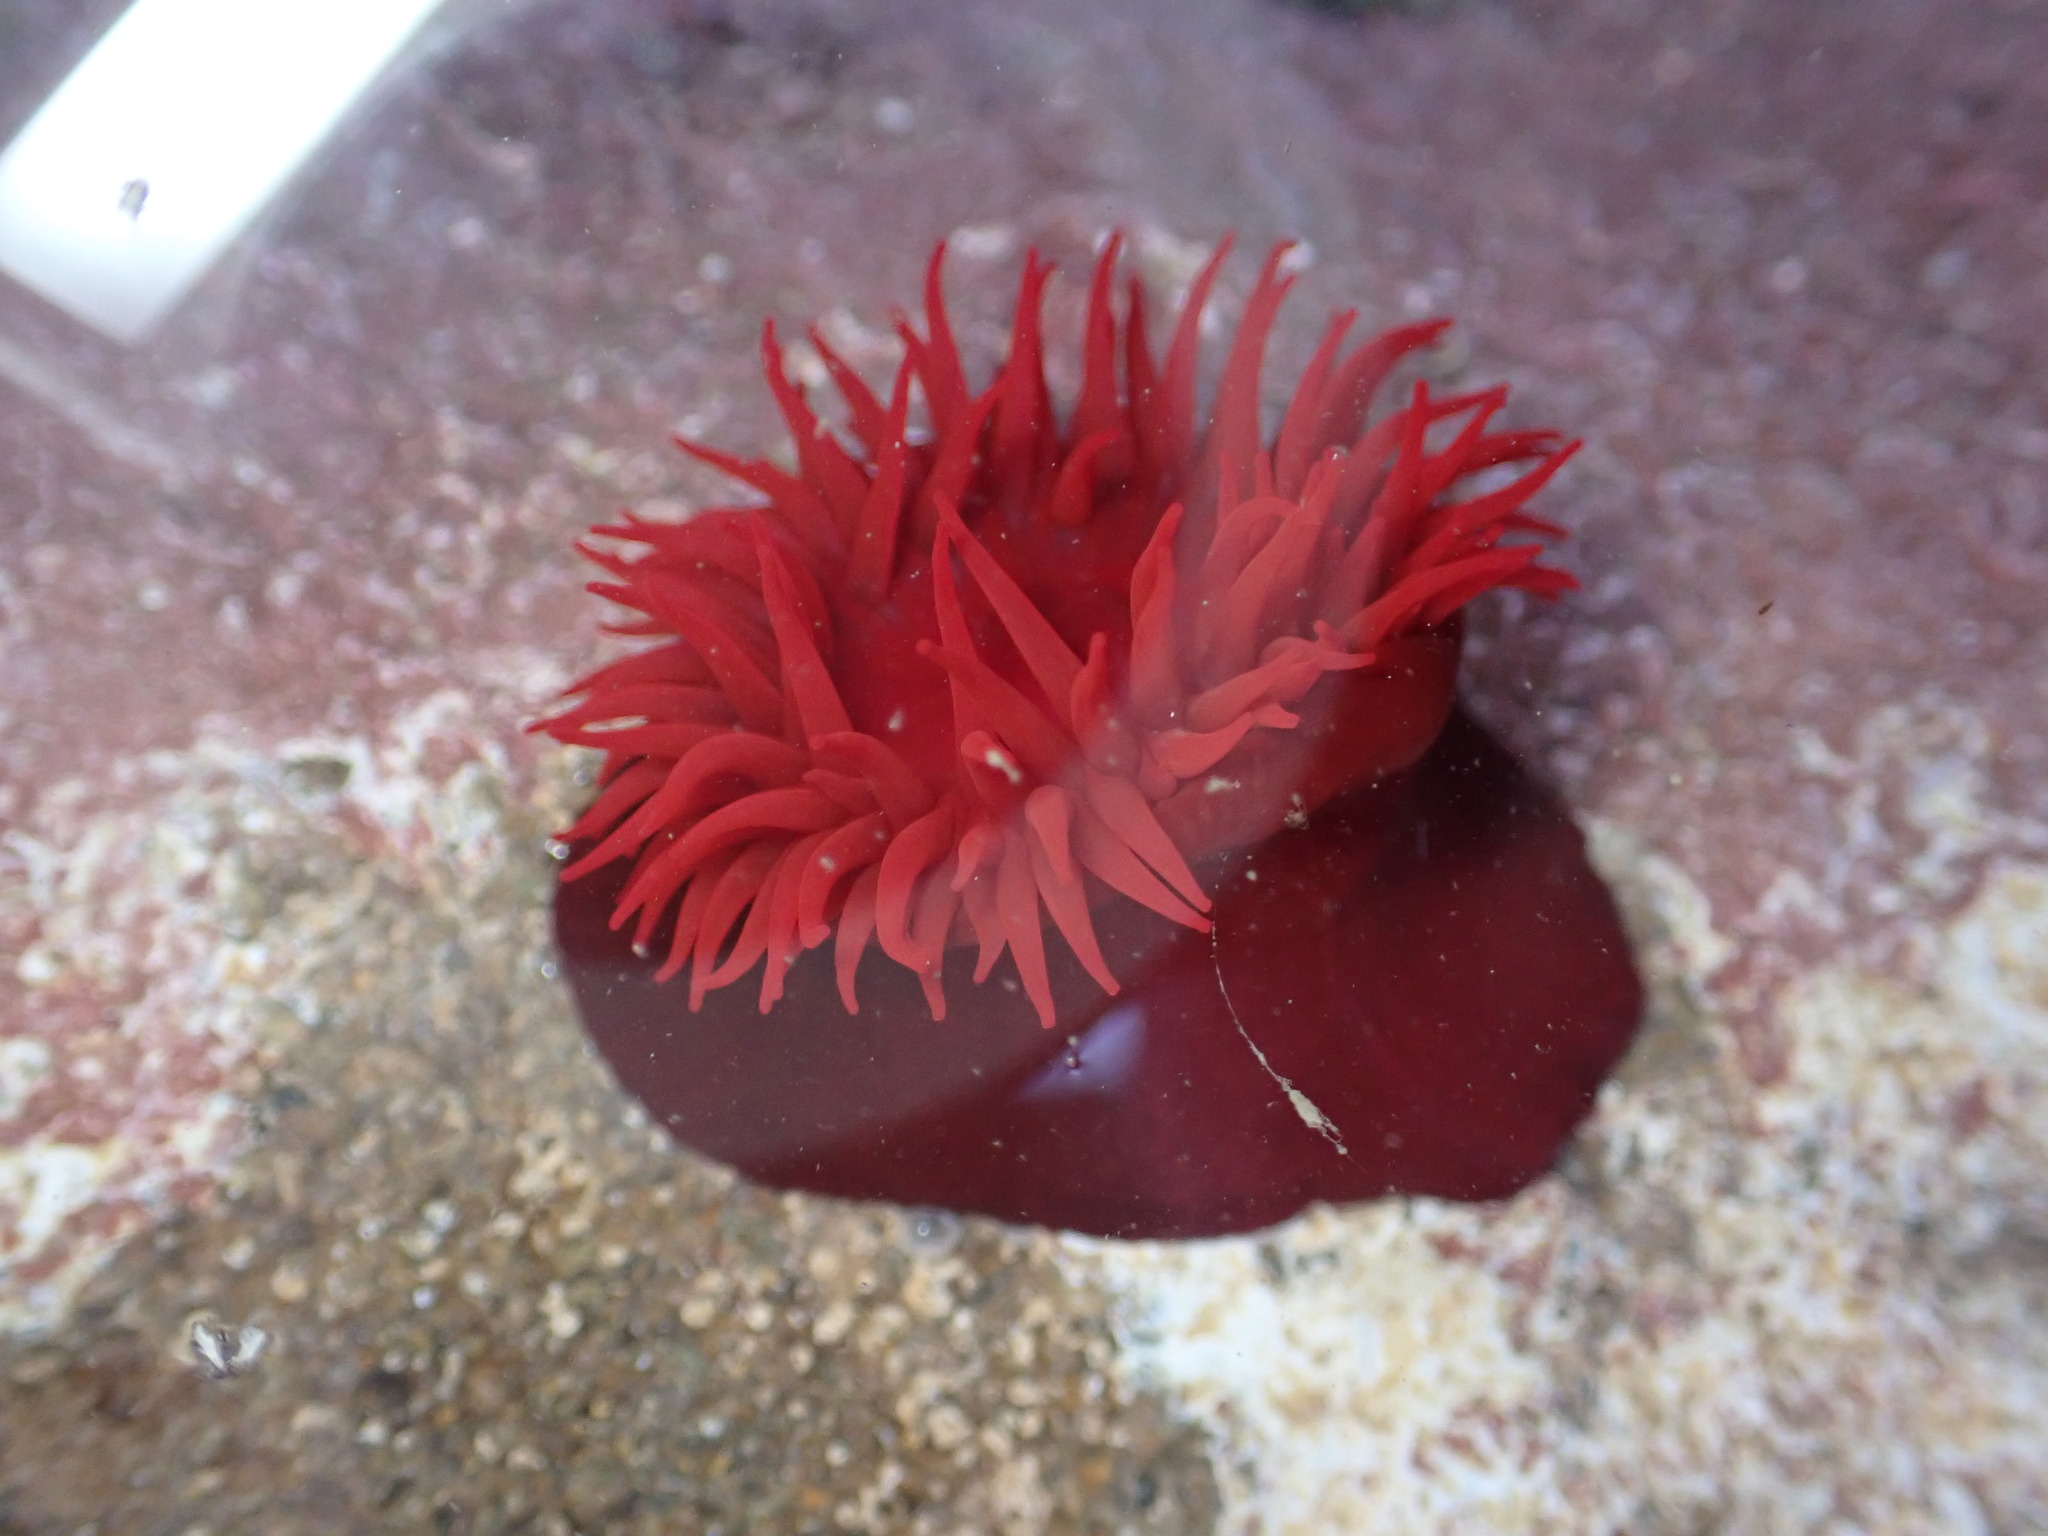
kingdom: Animalia
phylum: Cnidaria
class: Anthozoa
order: Actiniaria
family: Actiniidae
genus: Actinia
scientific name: Actinia tenebrosa
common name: Waratah anemone
